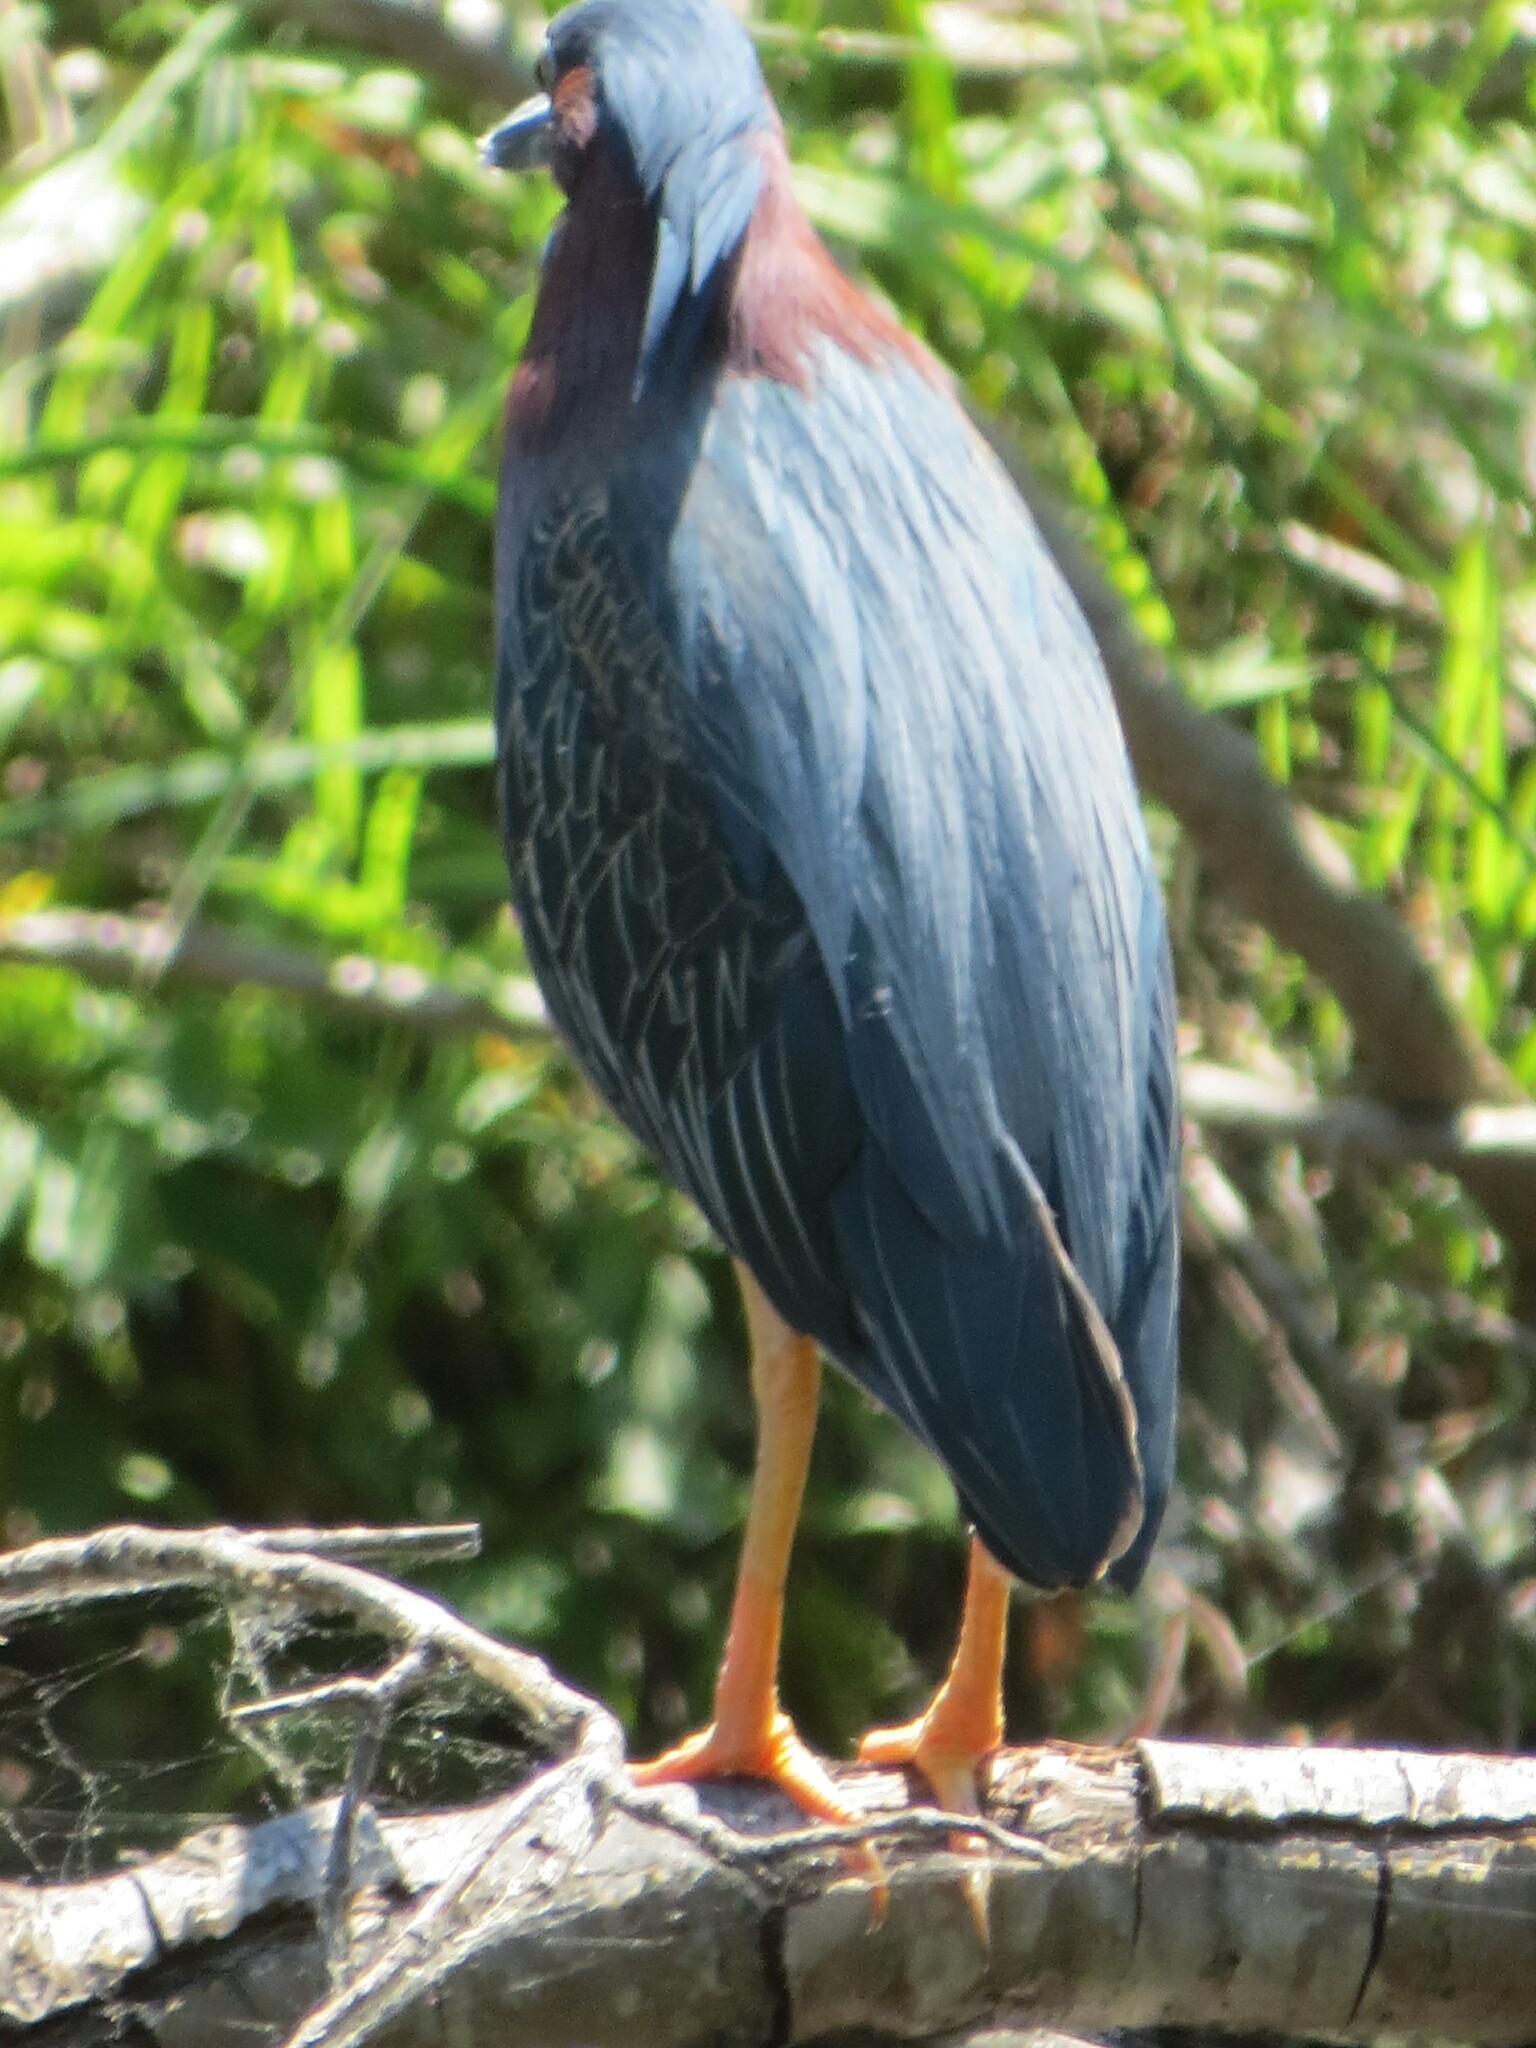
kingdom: Animalia
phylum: Chordata
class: Aves
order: Pelecaniformes
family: Ardeidae
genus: Butorides
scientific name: Butorides virescens
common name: Green heron
